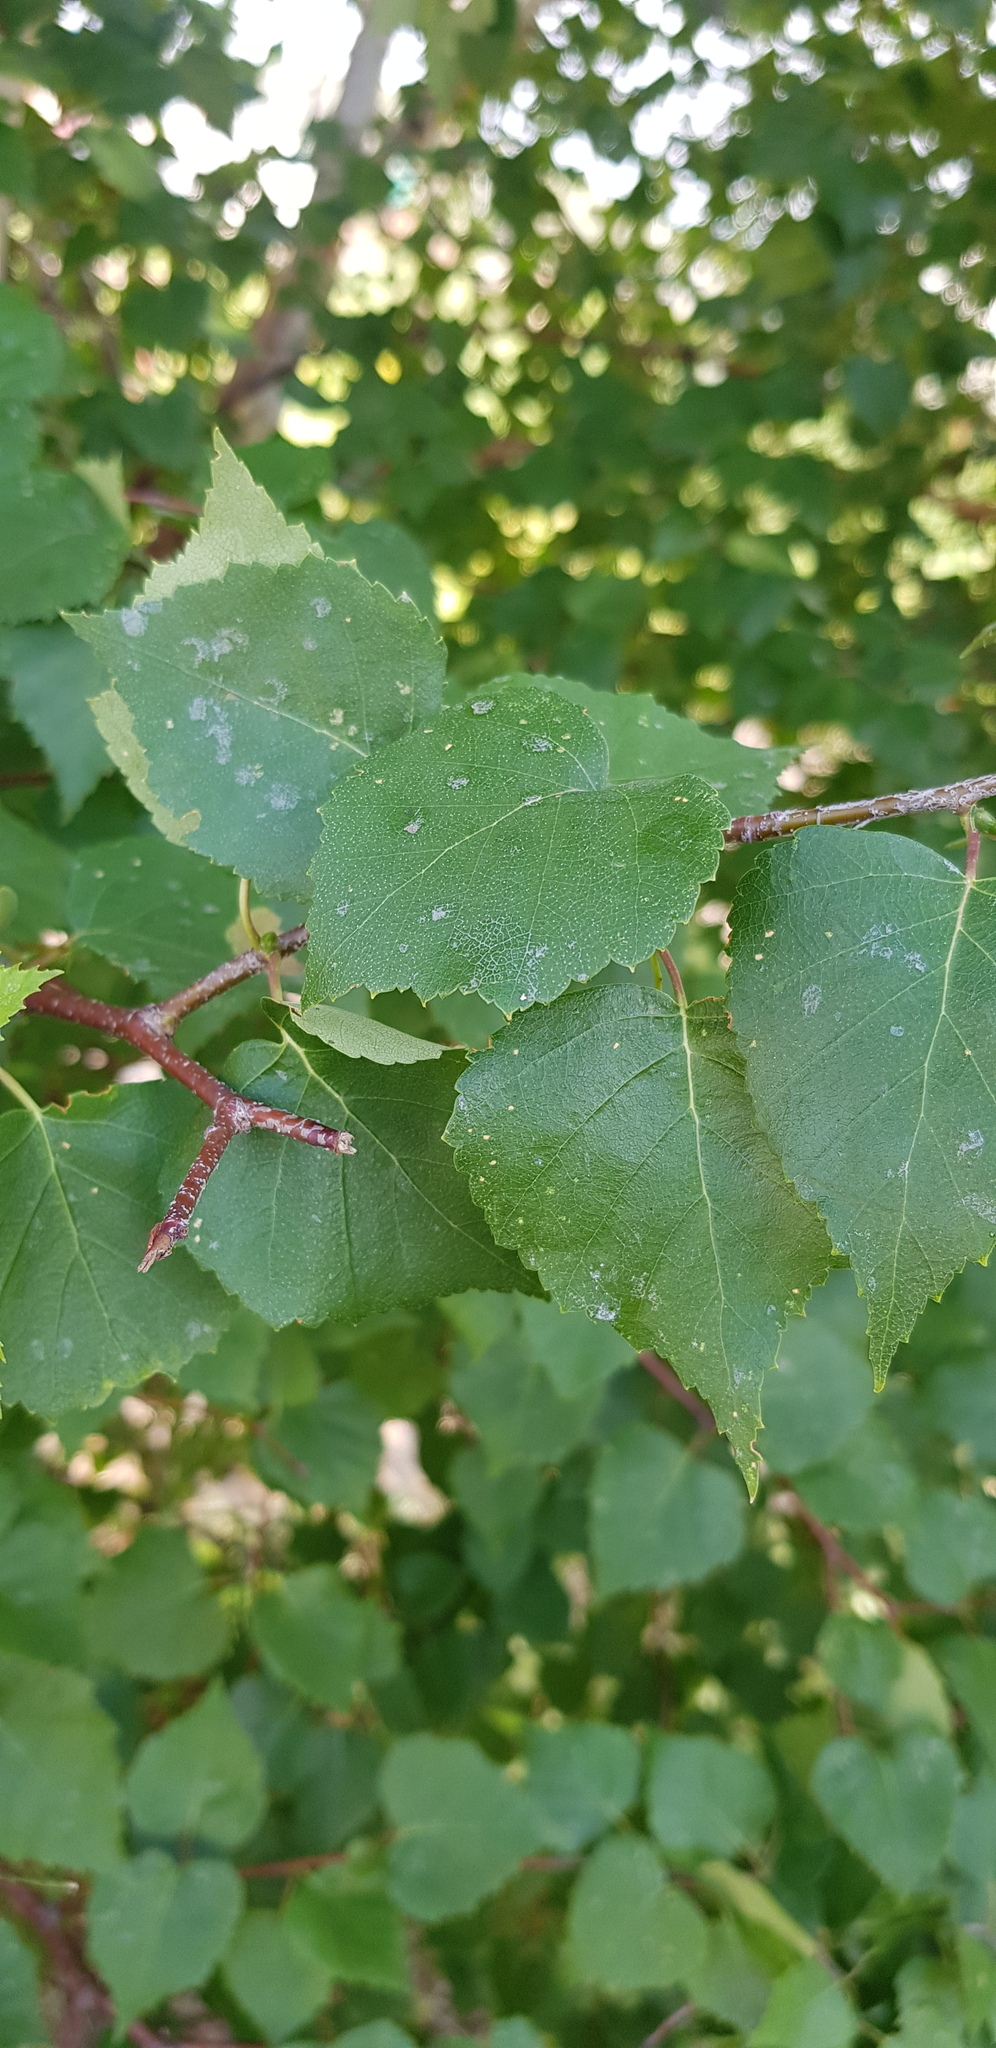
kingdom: Plantae
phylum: Tracheophyta
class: Magnoliopsida
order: Fagales
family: Betulaceae
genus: Betula
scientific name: Betula pendula
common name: Silver birch
